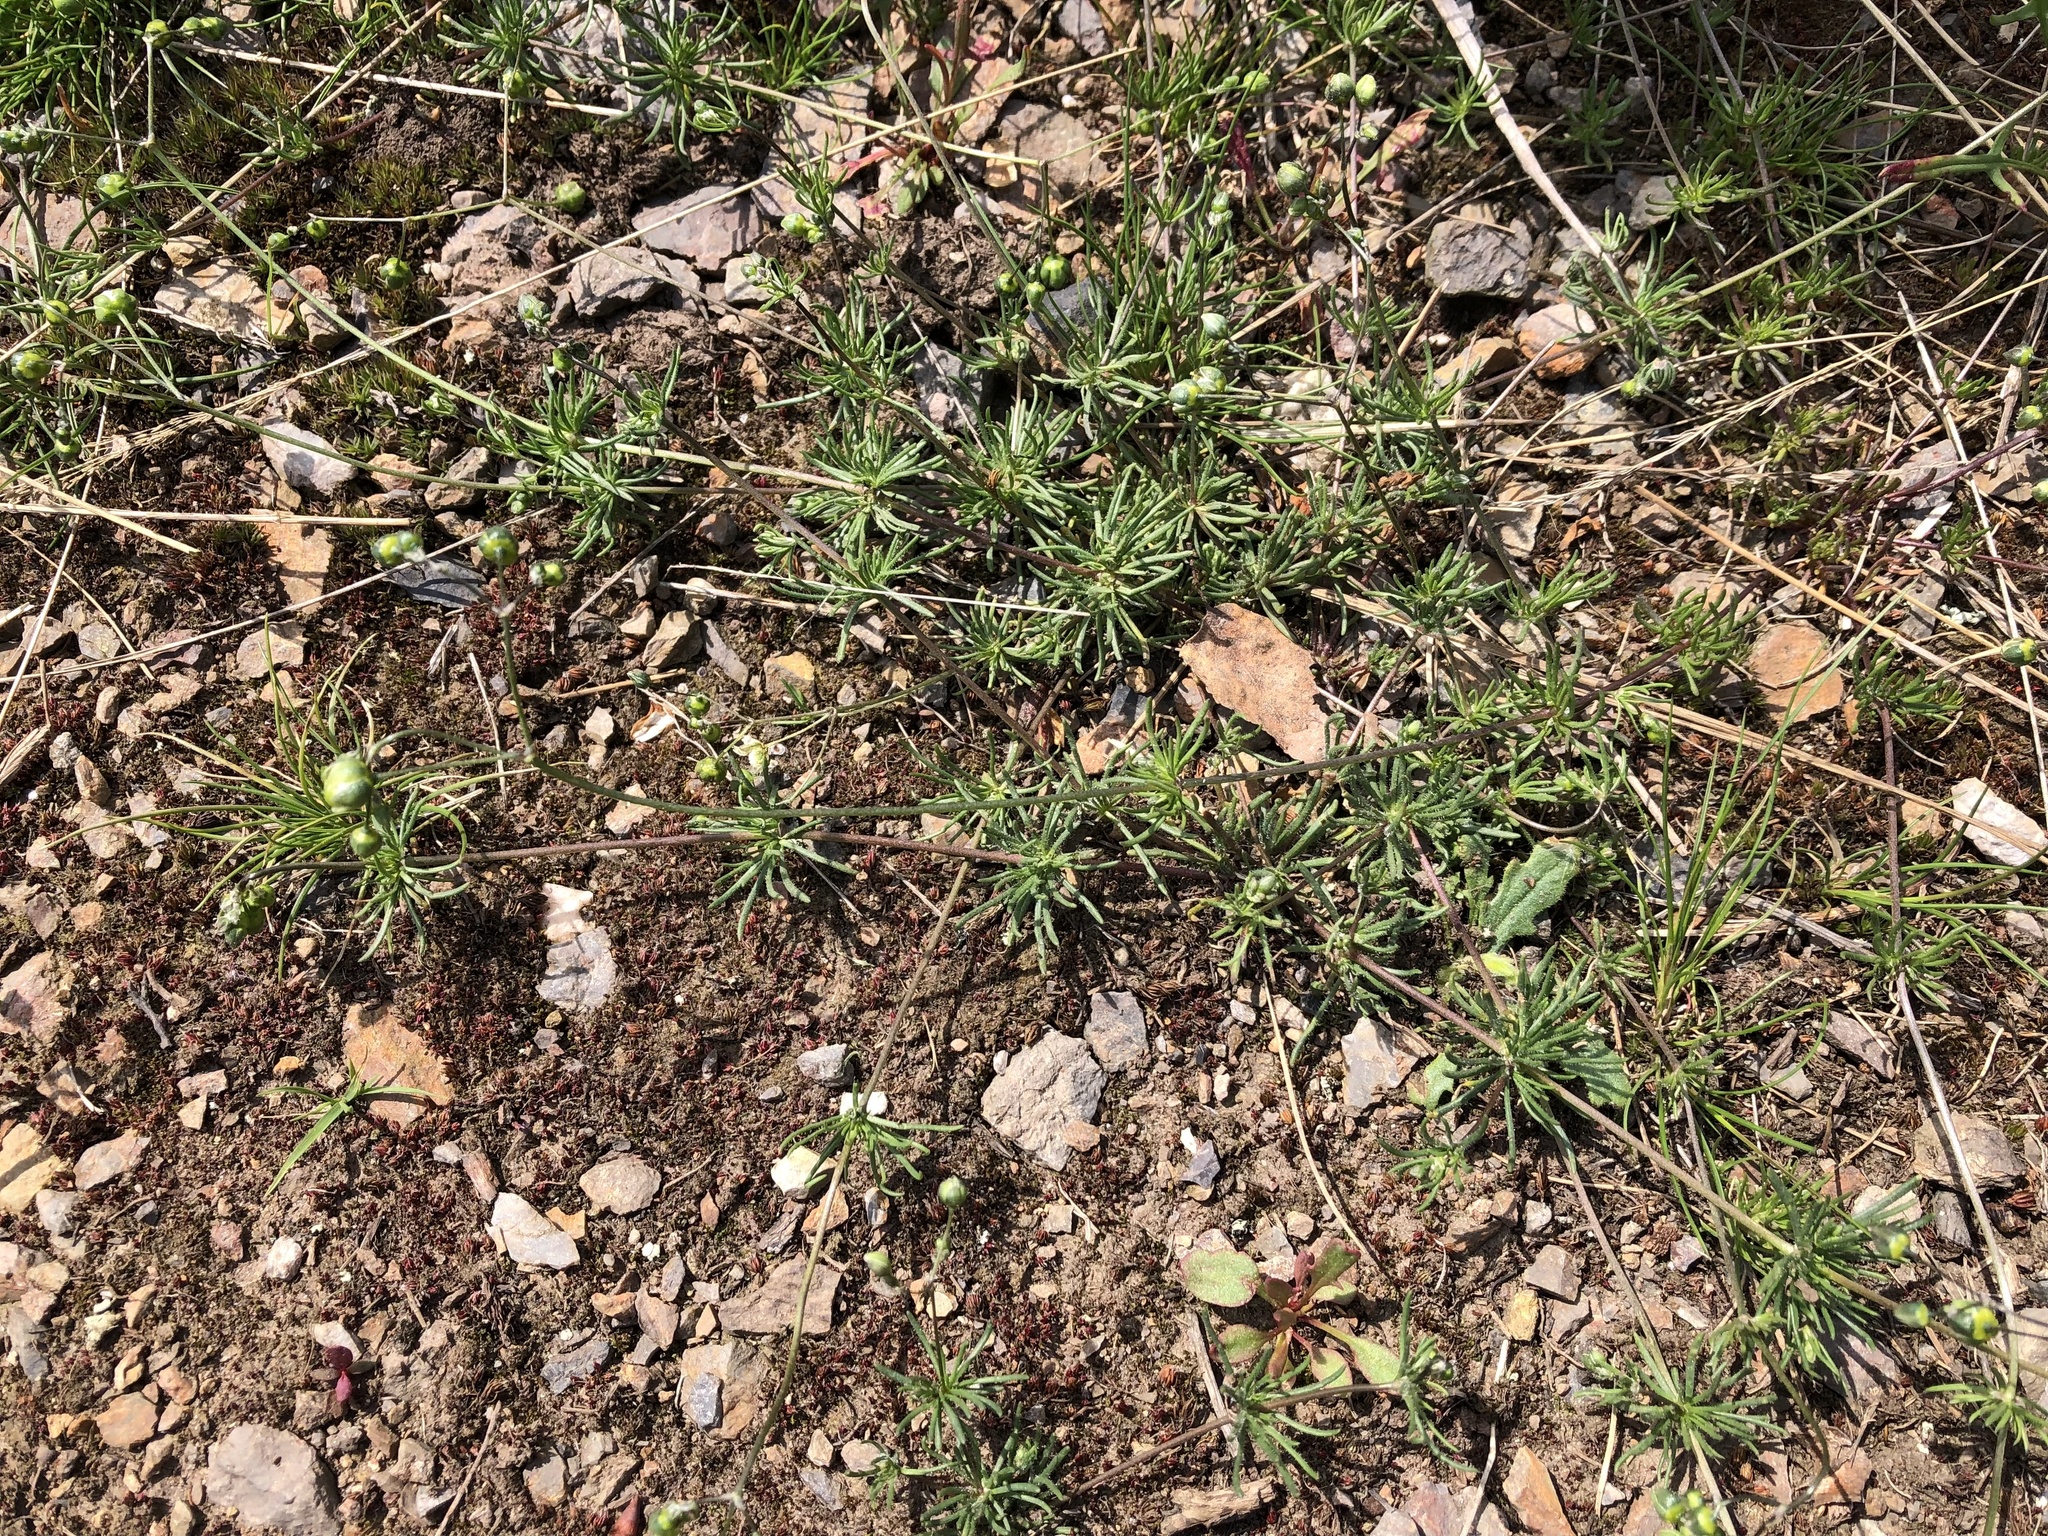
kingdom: Plantae
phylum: Tracheophyta
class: Magnoliopsida
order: Caryophyllales
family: Caryophyllaceae
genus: Spergula
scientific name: Spergula morisonii
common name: Pearlwort spurrey
